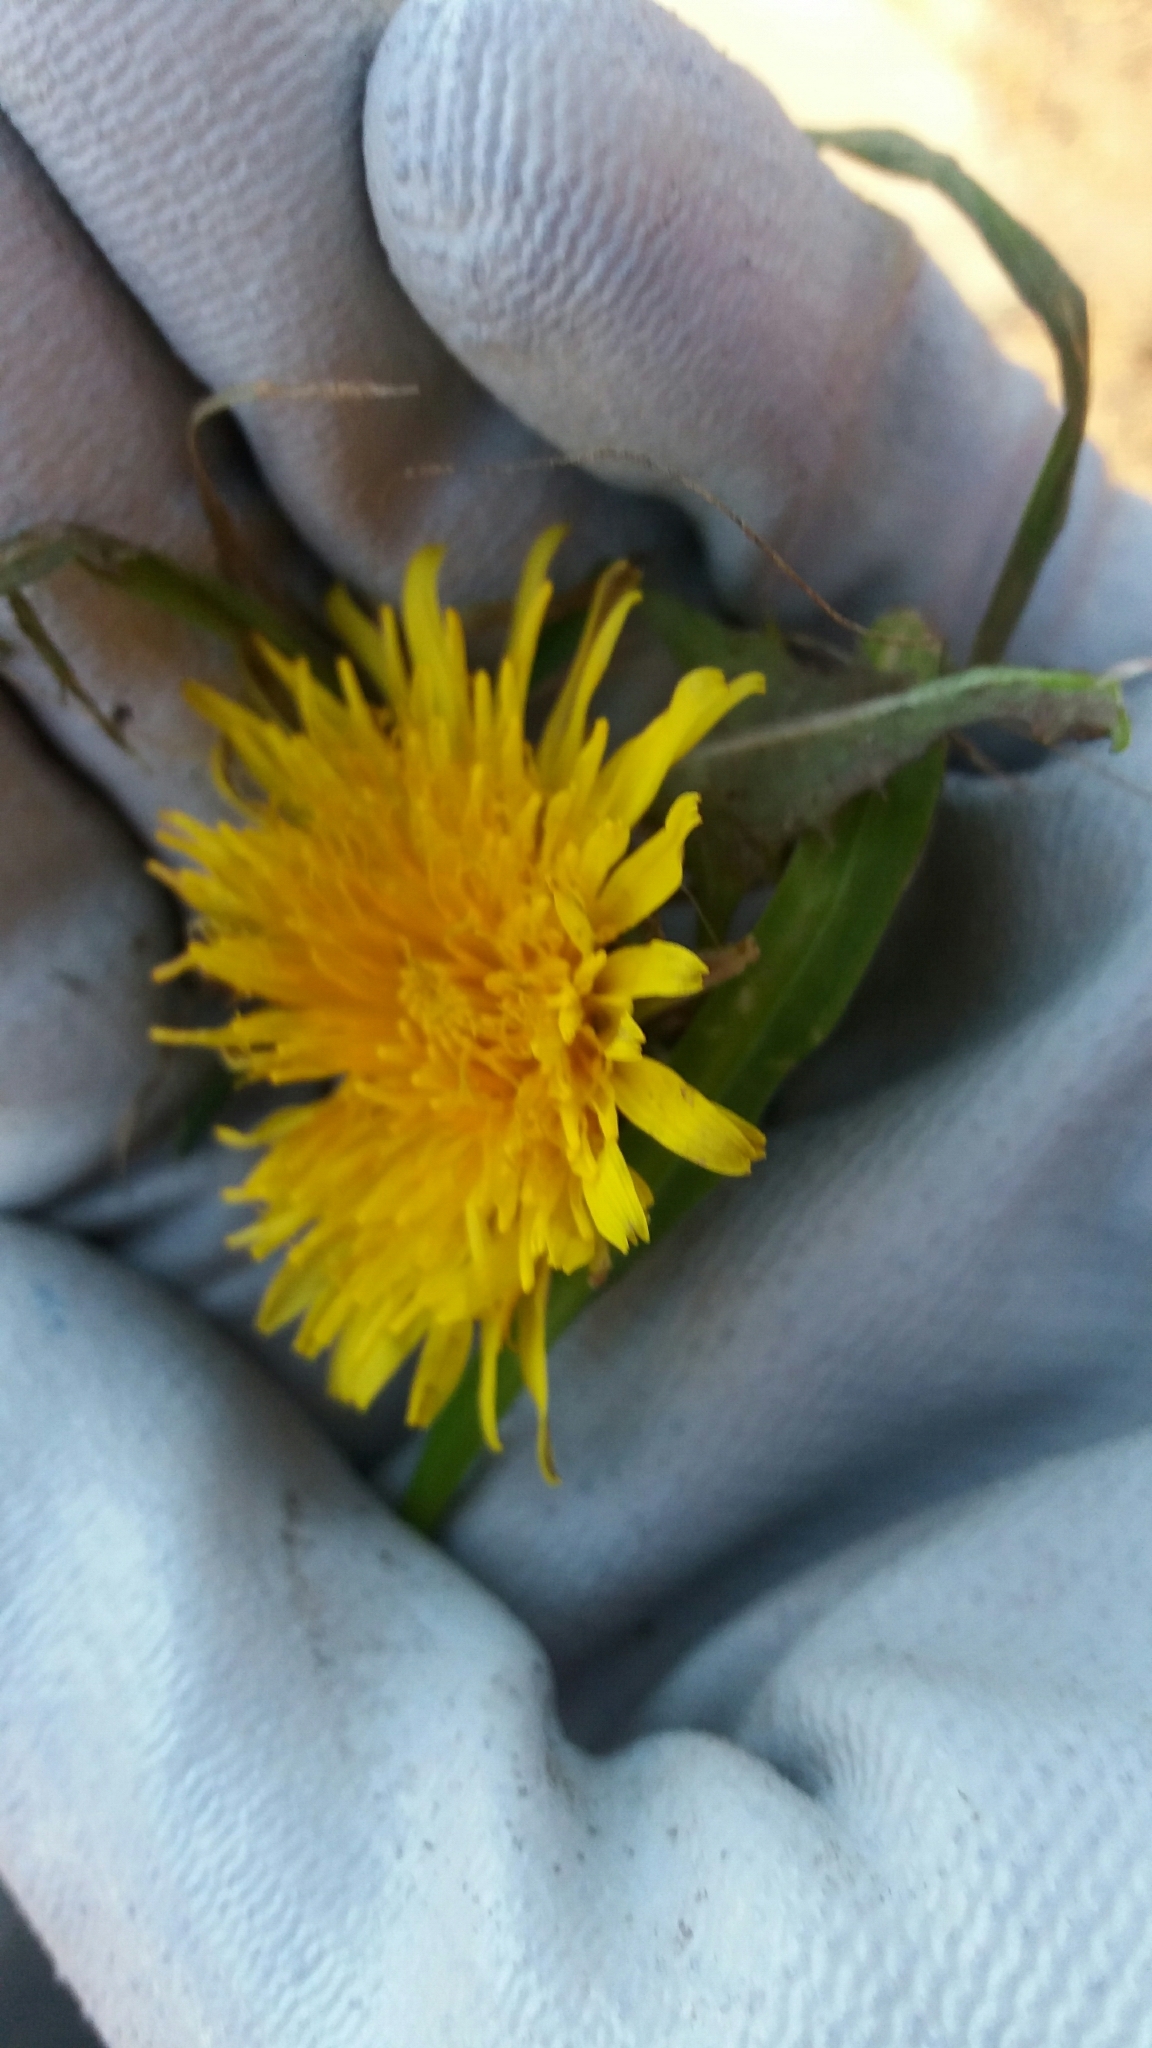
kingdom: Plantae
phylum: Tracheophyta
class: Magnoliopsida
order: Asterales
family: Asteraceae
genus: Taraxacum
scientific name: Taraxacum officinale
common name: Common dandelion
